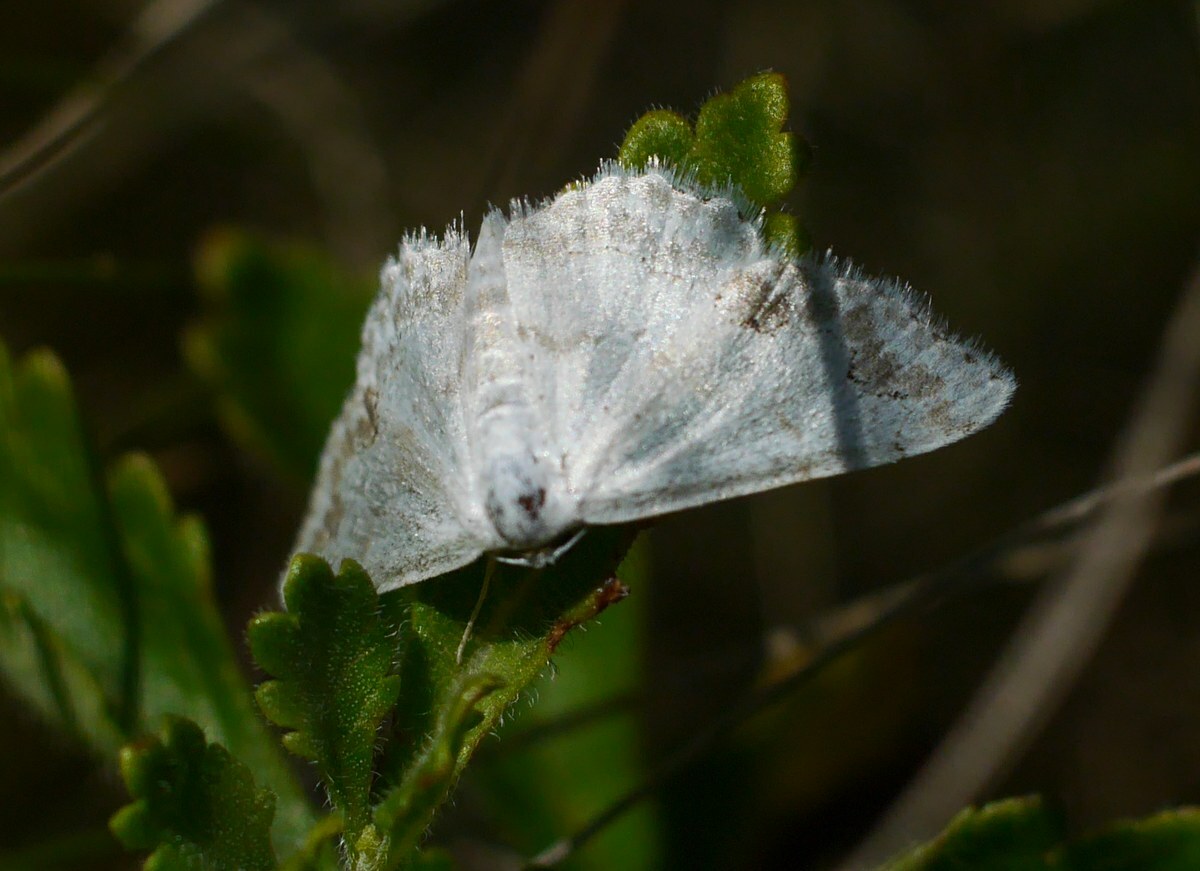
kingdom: Animalia
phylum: Arthropoda
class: Insecta
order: Lepidoptera
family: Geometridae
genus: Scopula
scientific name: Scopula ornata
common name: Lace border
